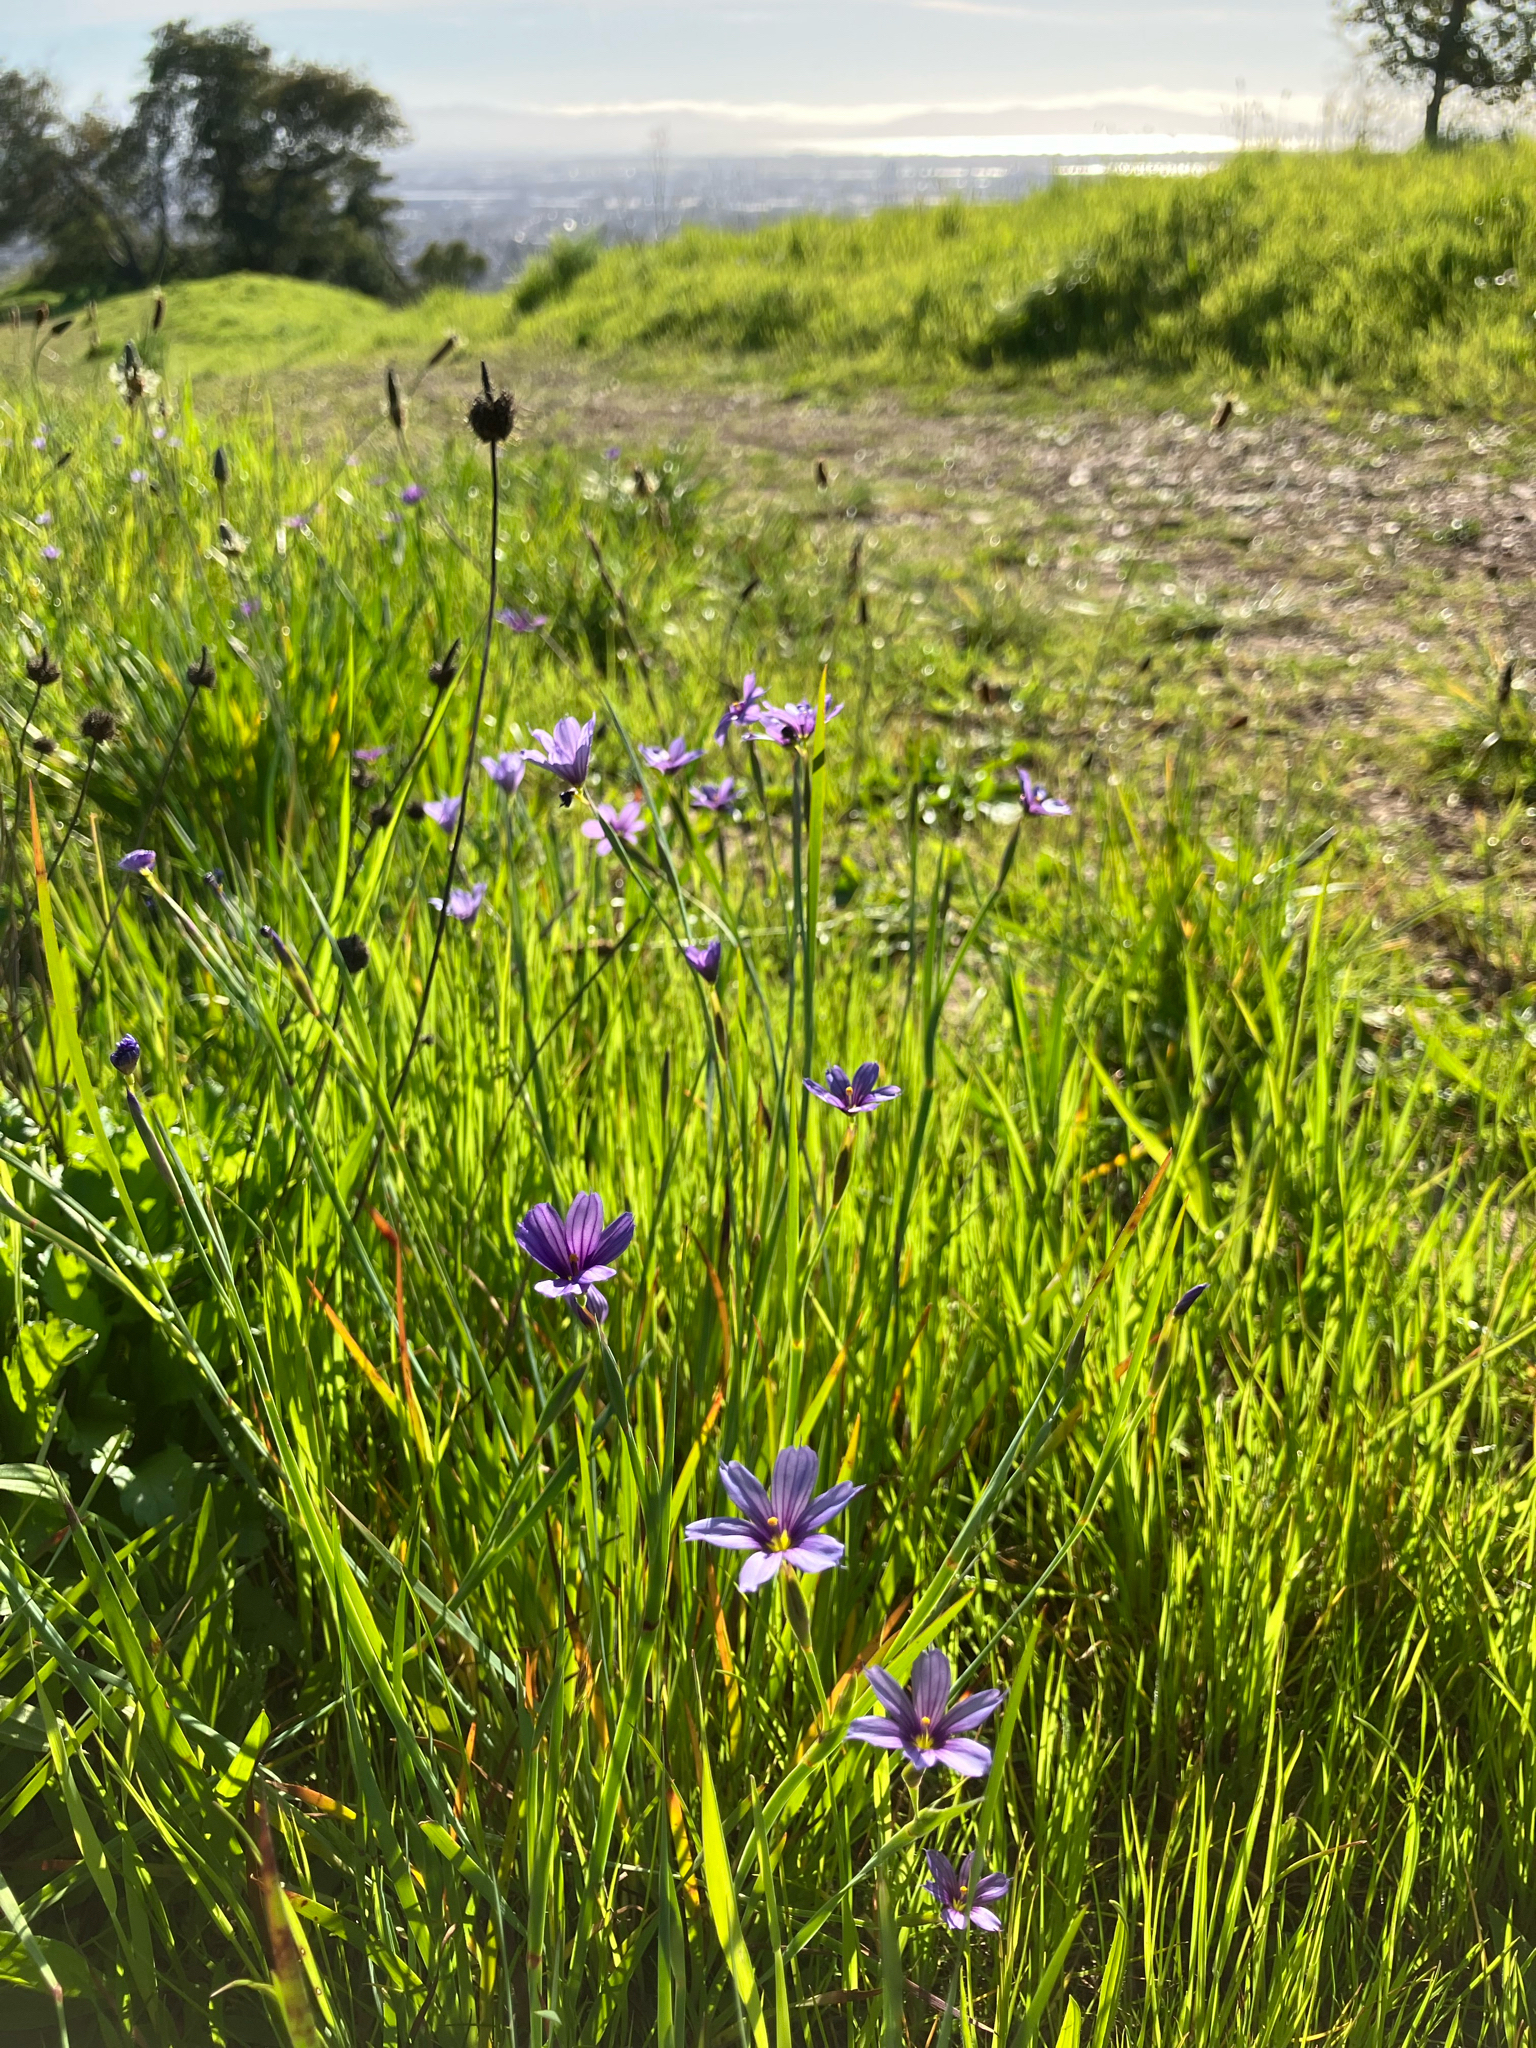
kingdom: Plantae
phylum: Tracheophyta
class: Liliopsida
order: Asparagales
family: Iridaceae
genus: Sisyrinchium
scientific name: Sisyrinchium bellum
